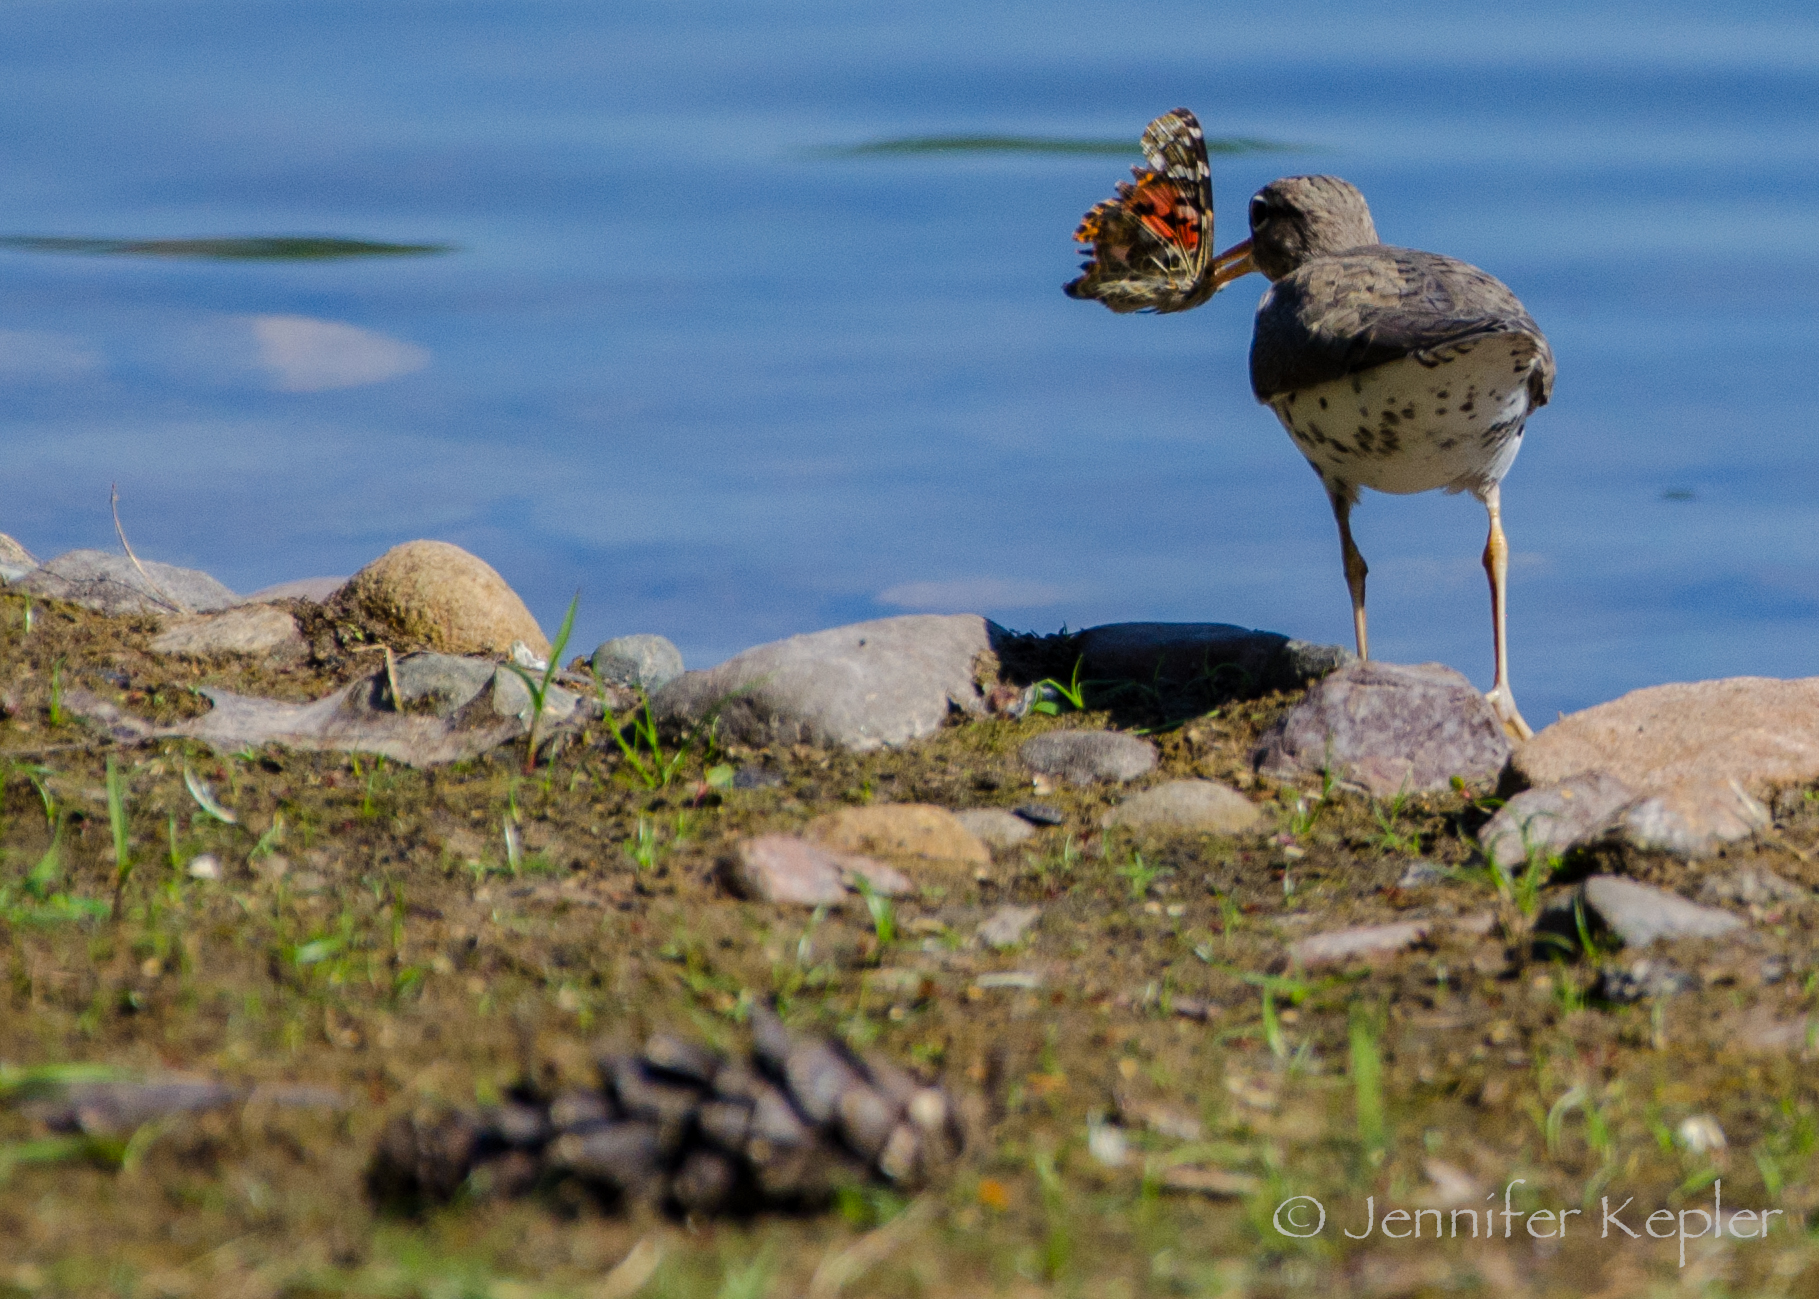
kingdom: Animalia
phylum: Arthropoda
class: Insecta
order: Lepidoptera
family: Nymphalidae
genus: Vanessa
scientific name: Vanessa cardui
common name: Painted lady
